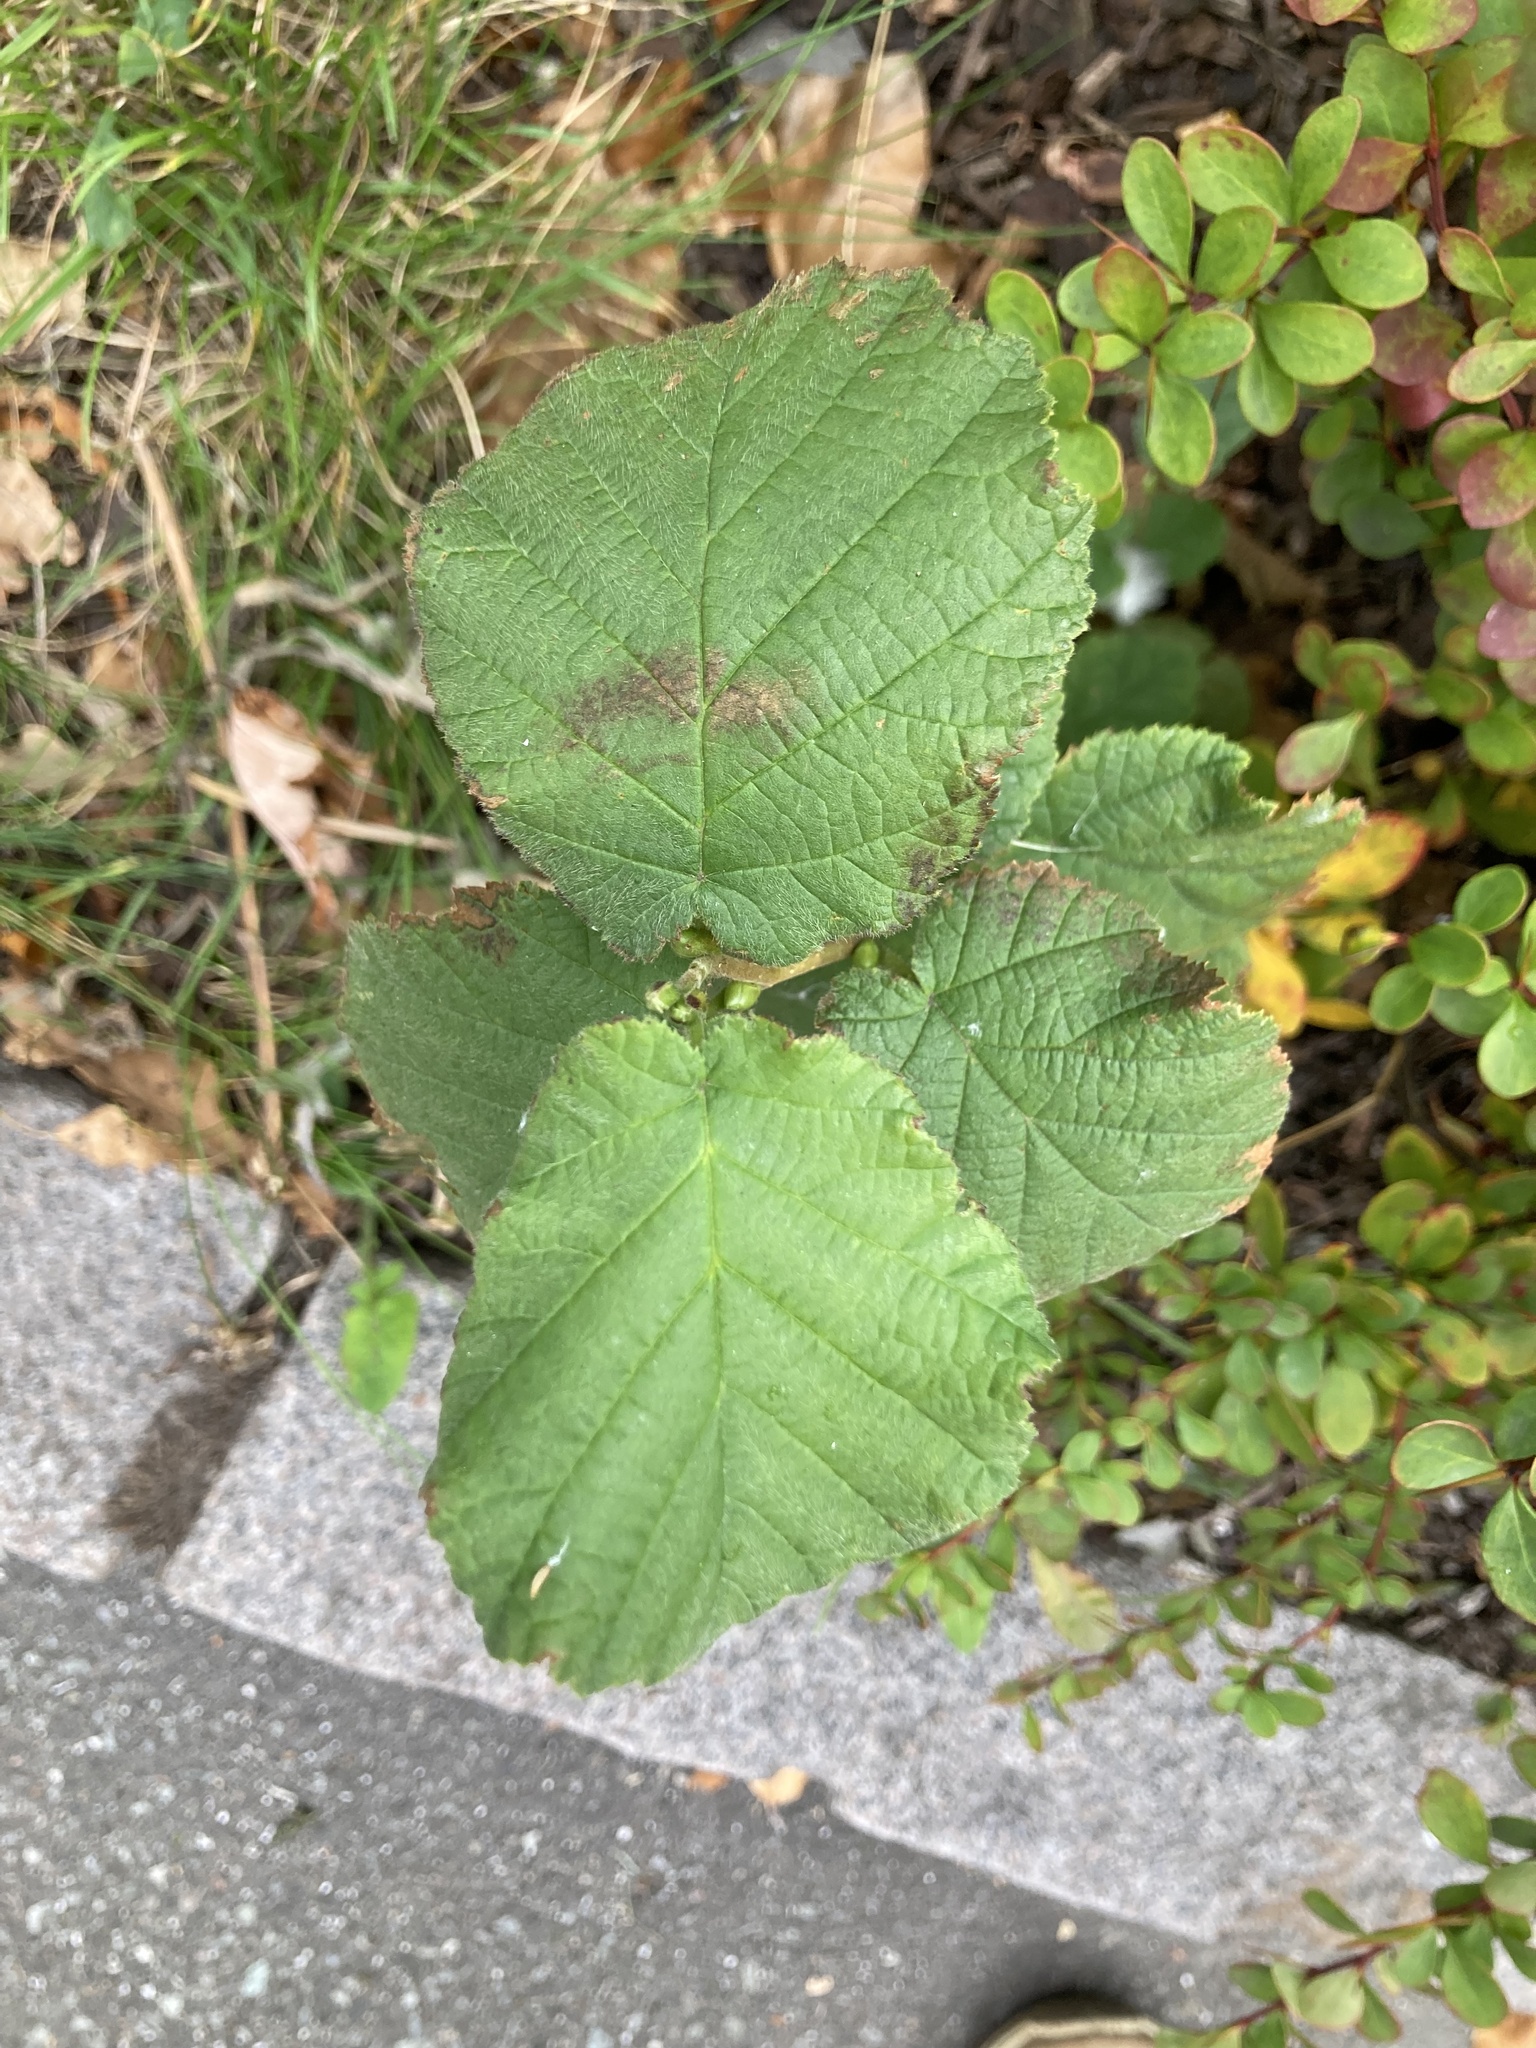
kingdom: Plantae
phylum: Tracheophyta
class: Magnoliopsida
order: Fagales
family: Betulaceae
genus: Corylus
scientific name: Corylus avellana
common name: European hazel
